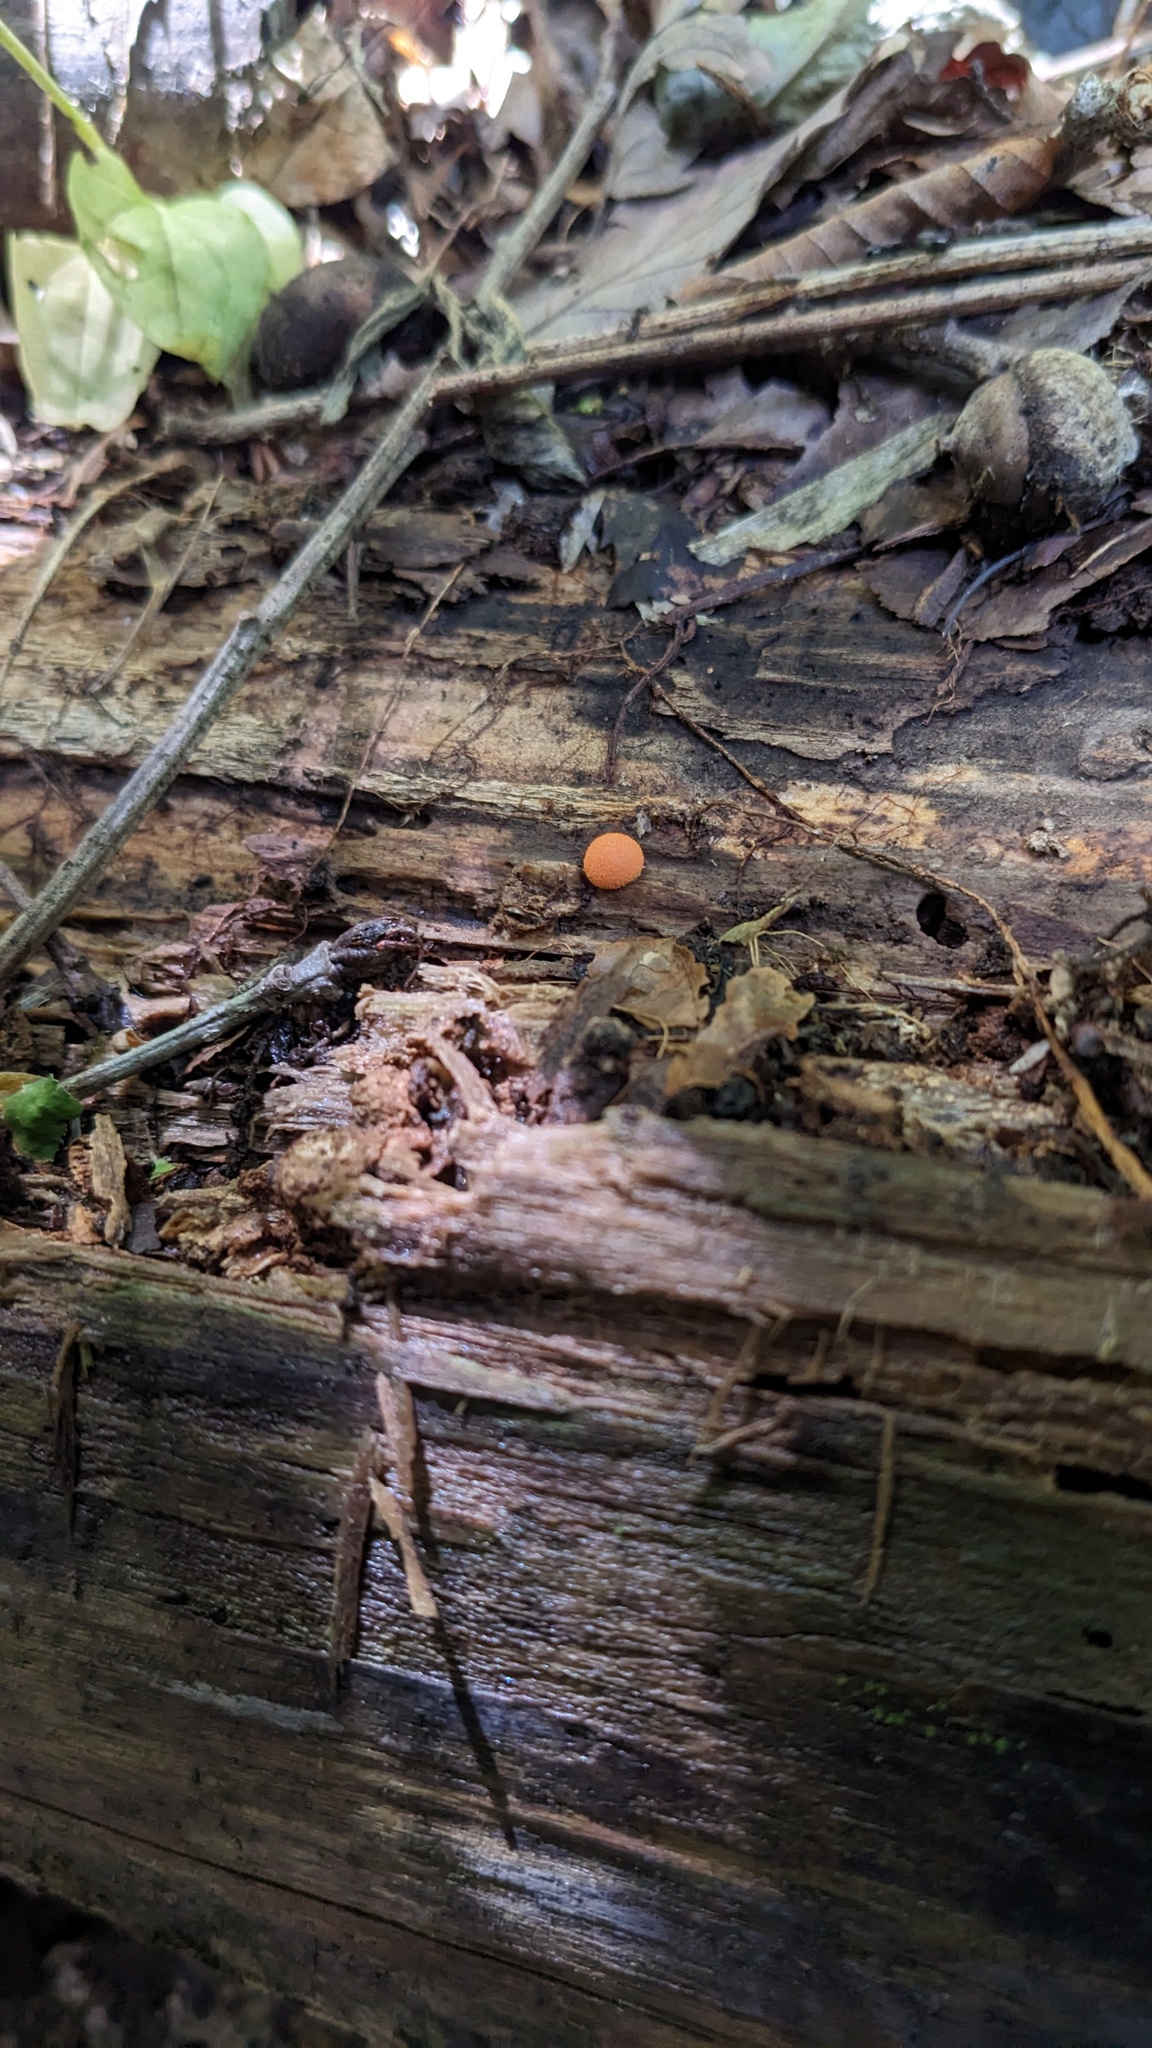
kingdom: Protozoa
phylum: Mycetozoa
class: Myxomycetes
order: Cribrariales
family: Tubiferaceae
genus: Lycogala
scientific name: Lycogala epidendrum
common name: Wolf's milk
